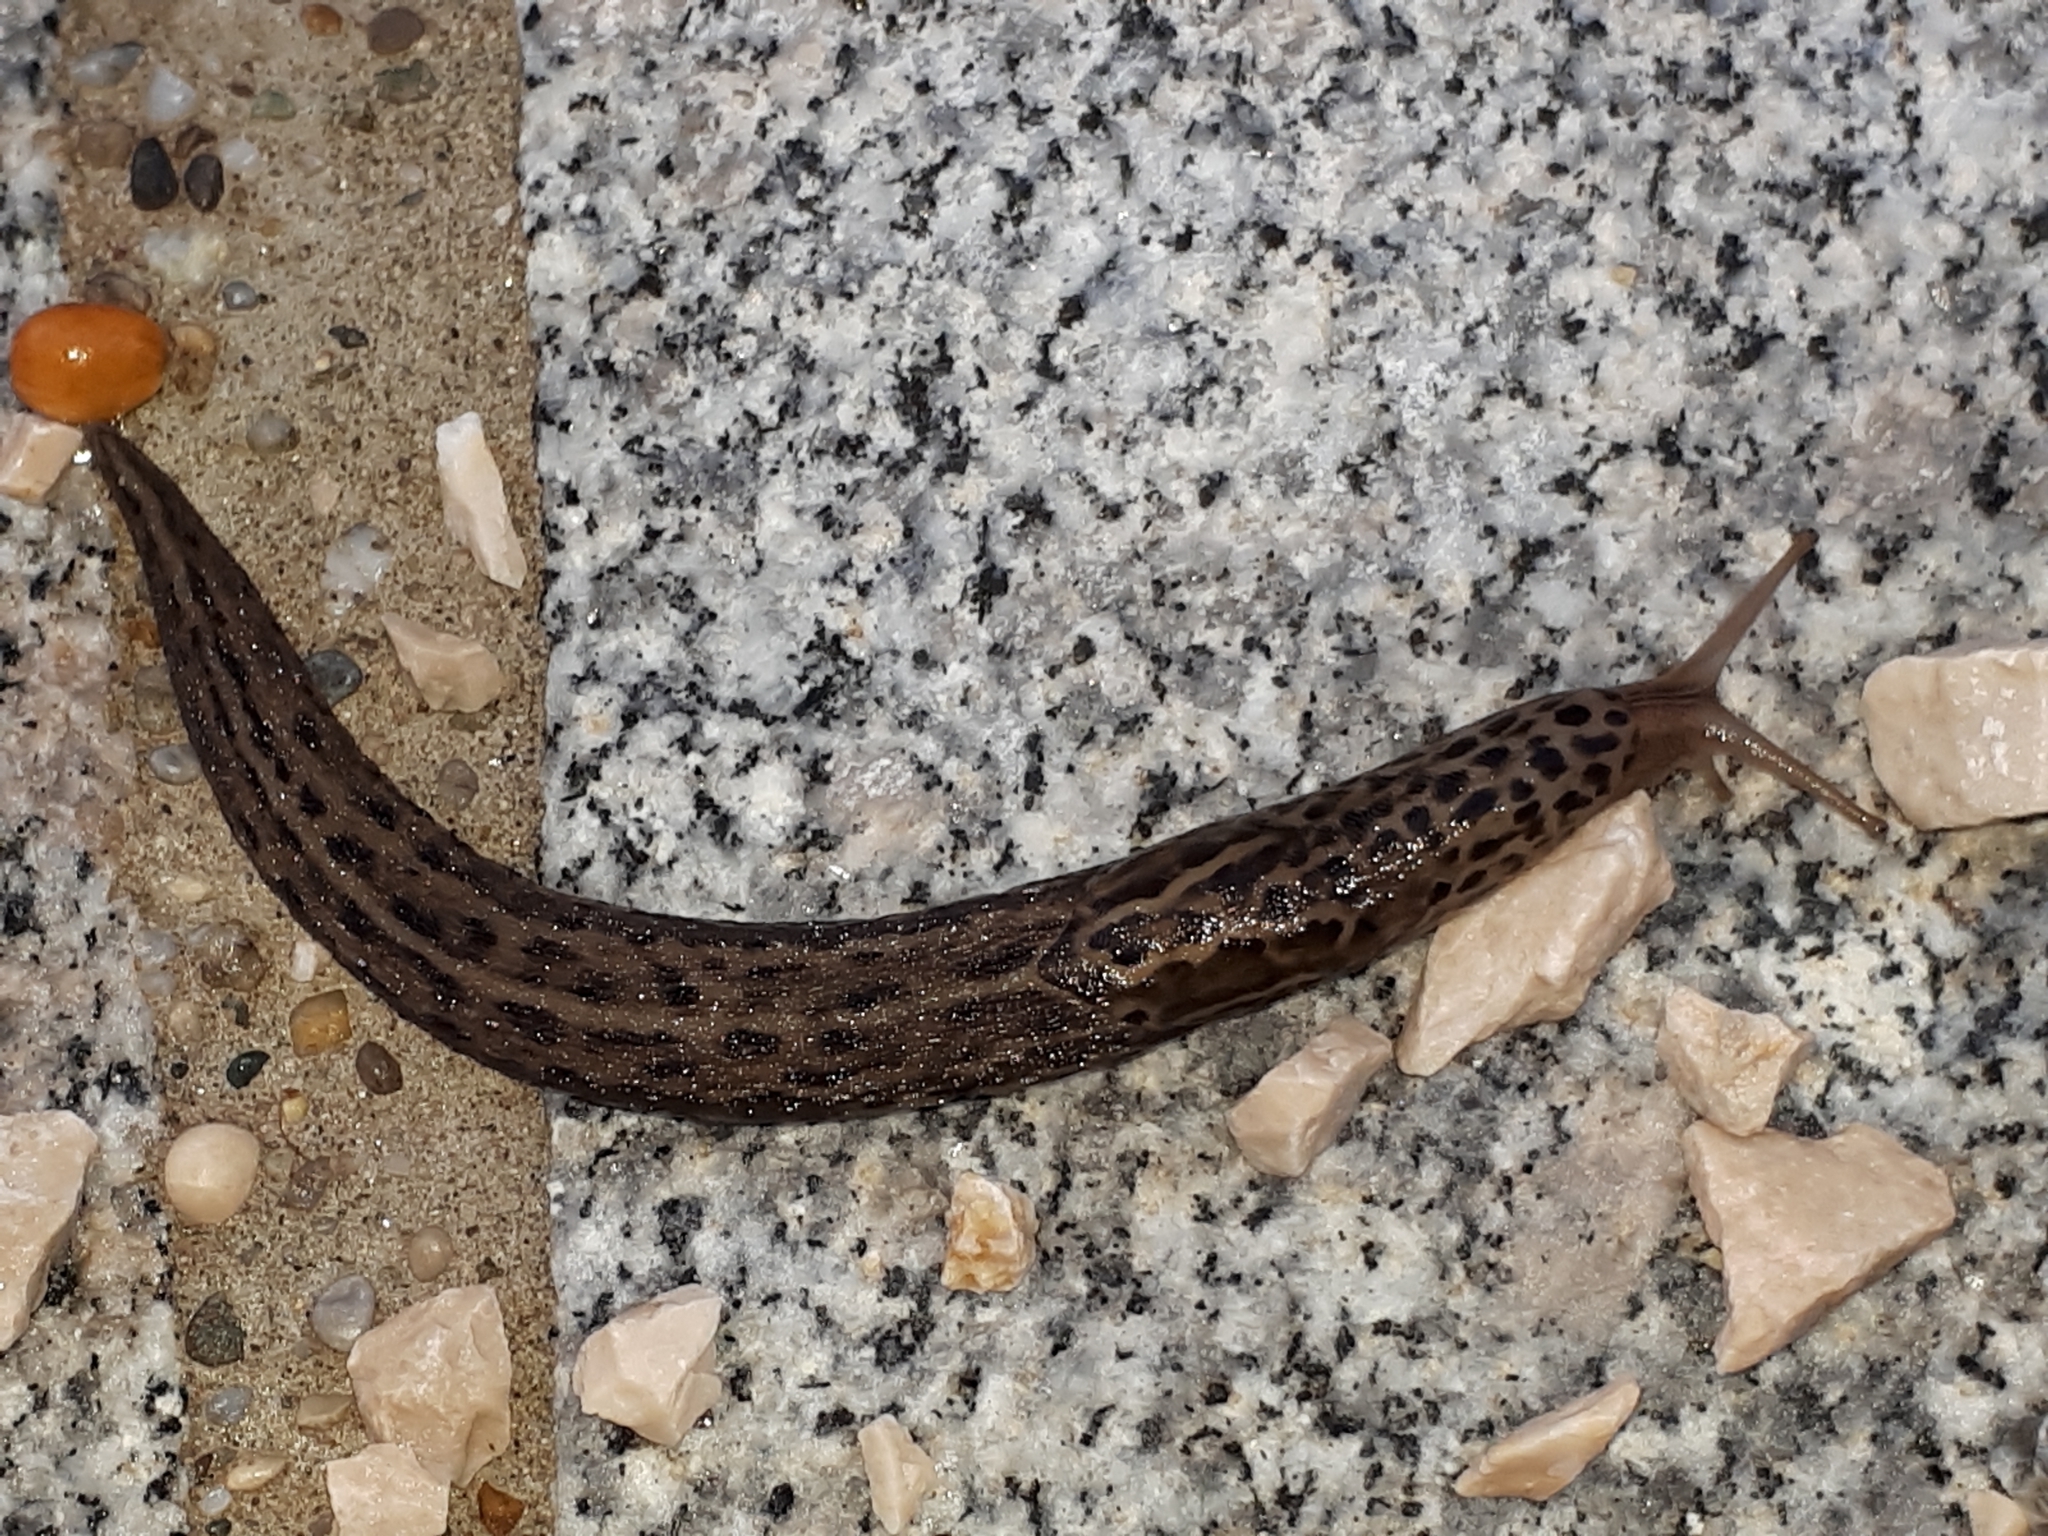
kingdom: Animalia
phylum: Mollusca
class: Gastropoda
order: Stylommatophora
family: Limacidae
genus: Limax
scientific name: Limax maximus
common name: Great grey slug
